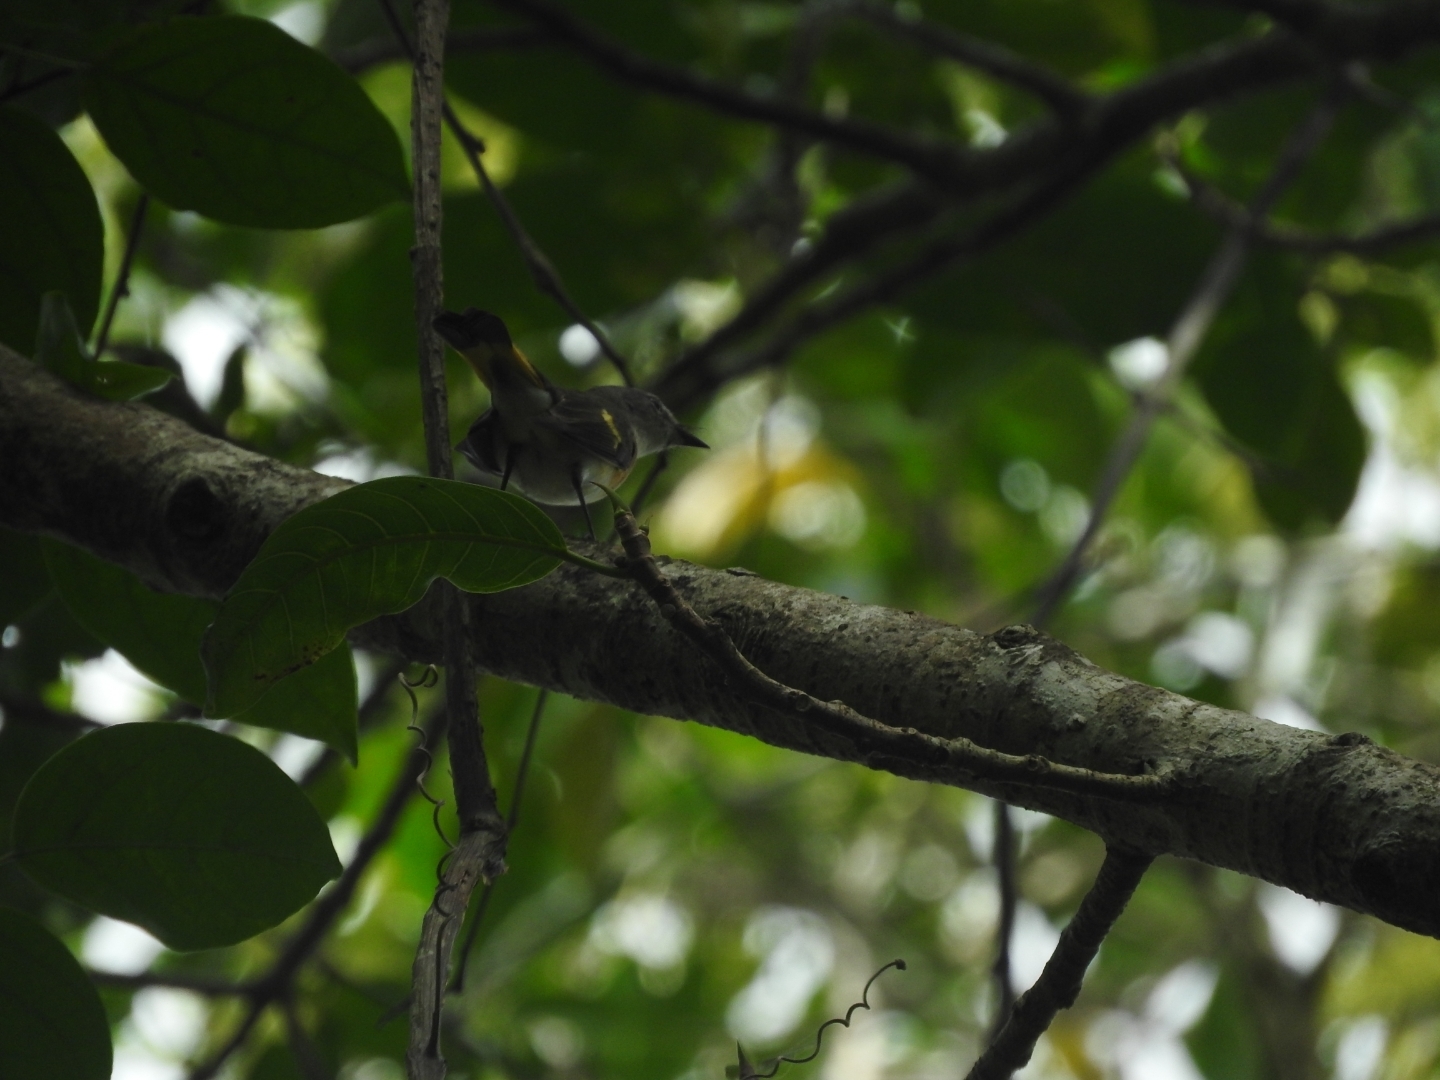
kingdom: Animalia
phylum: Chordata
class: Aves
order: Passeriformes
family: Parulidae
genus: Setophaga
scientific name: Setophaga ruticilla
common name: American redstart
